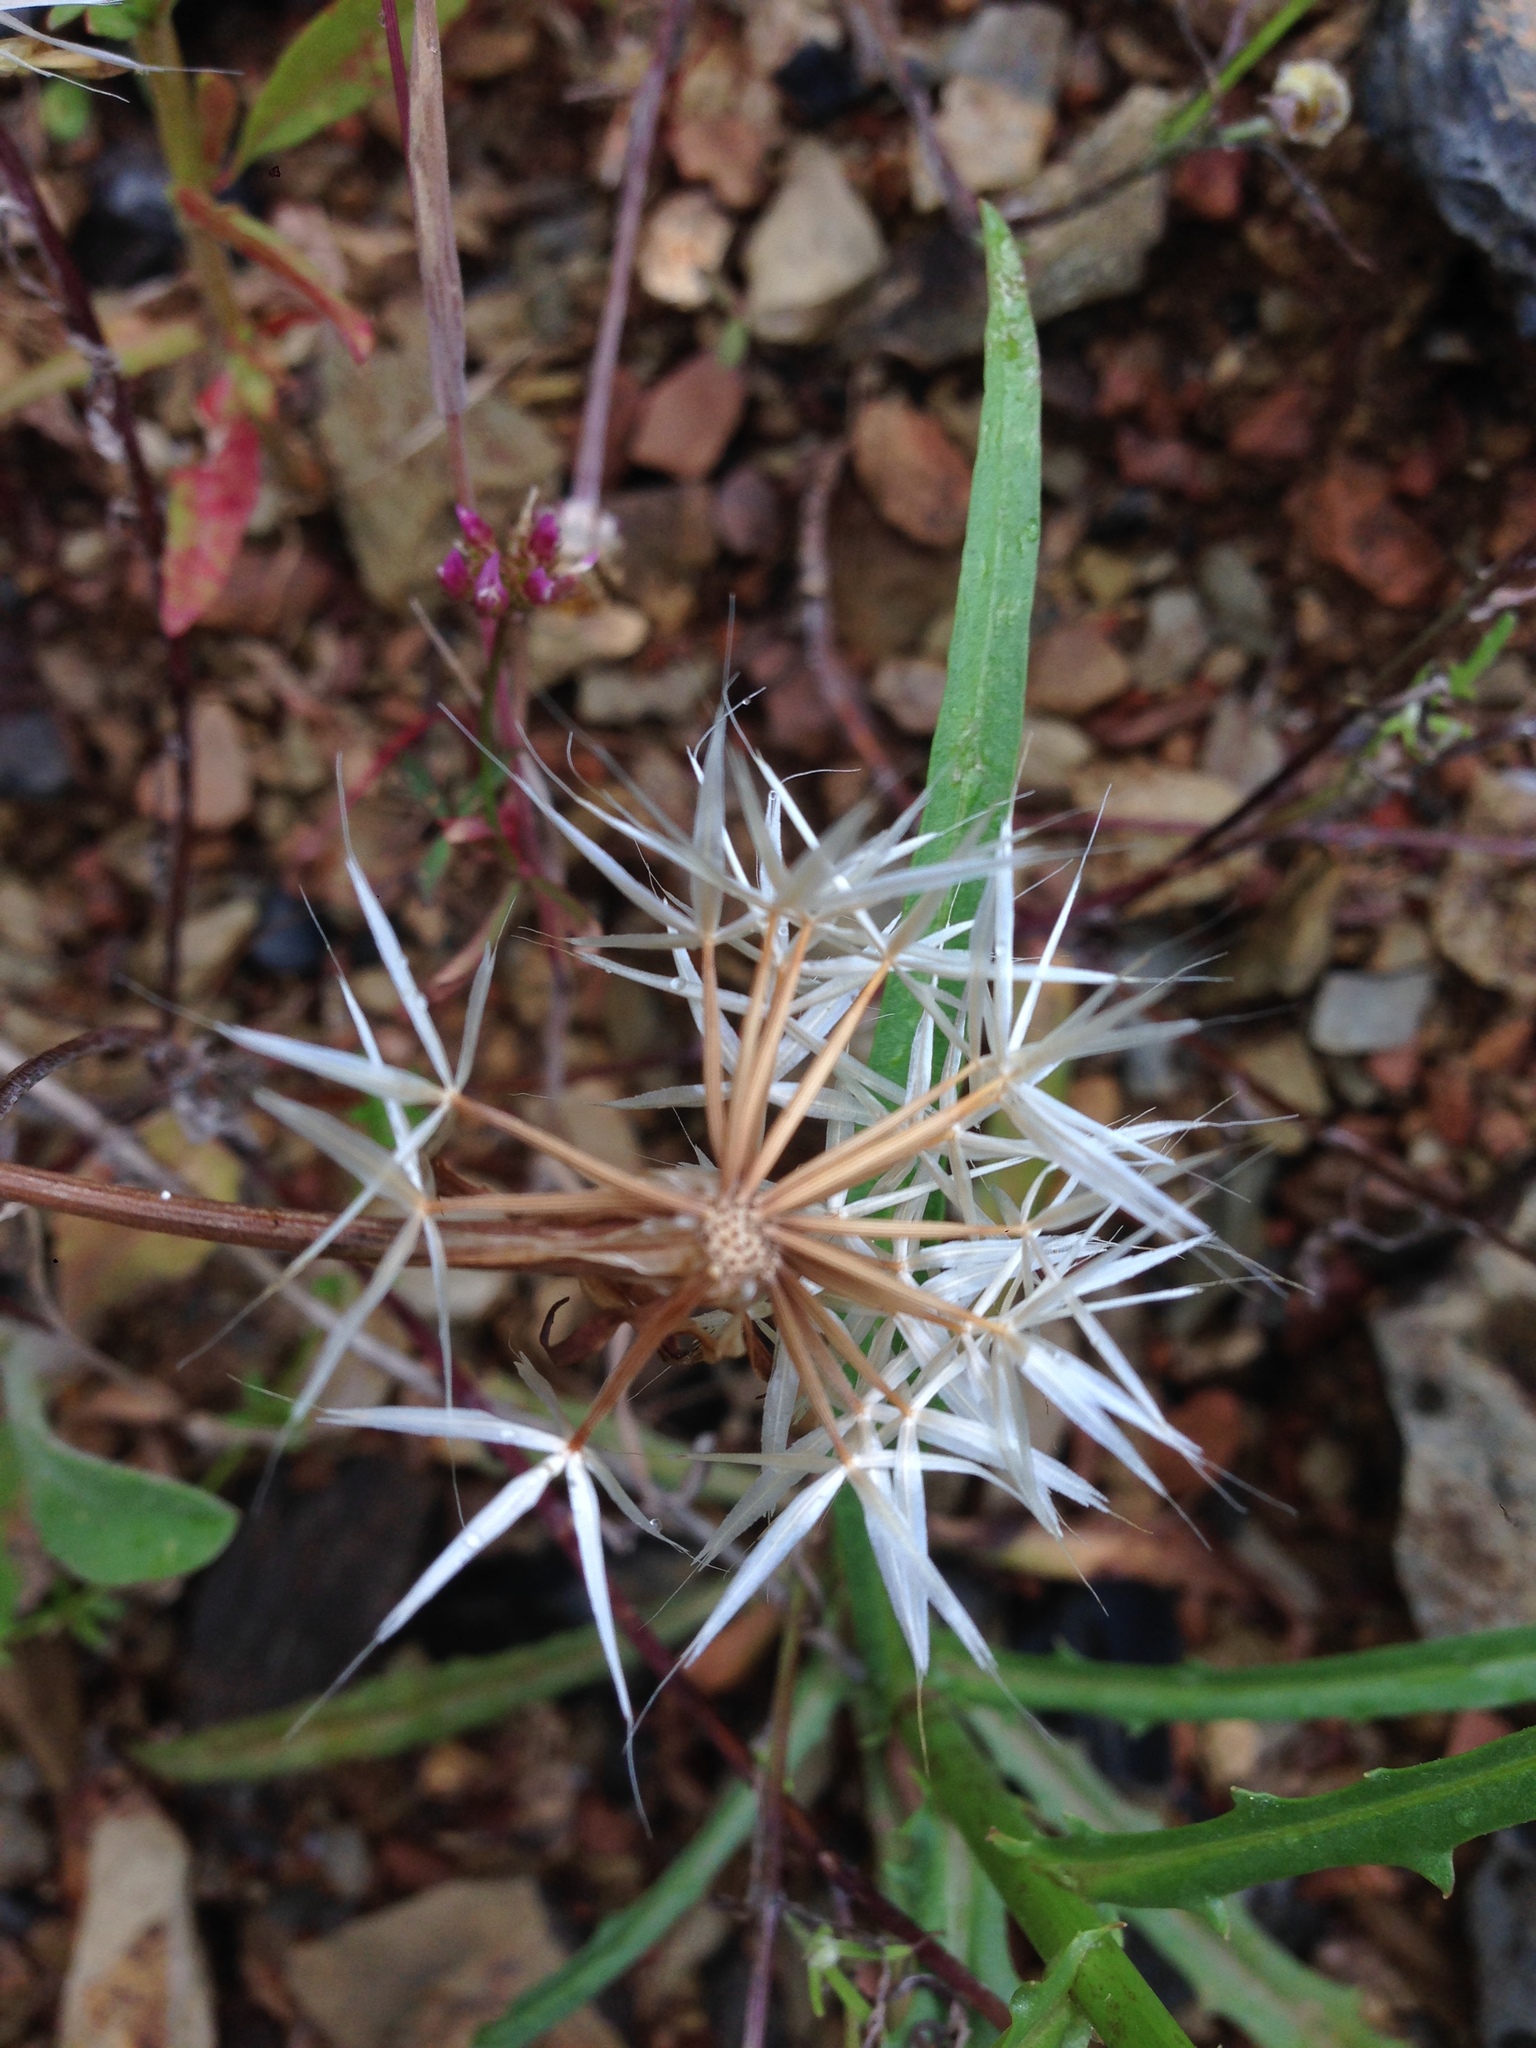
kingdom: Plantae
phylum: Tracheophyta
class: Magnoliopsida
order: Asterales
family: Asteraceae
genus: Microseris
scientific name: Microseris lindleyi
